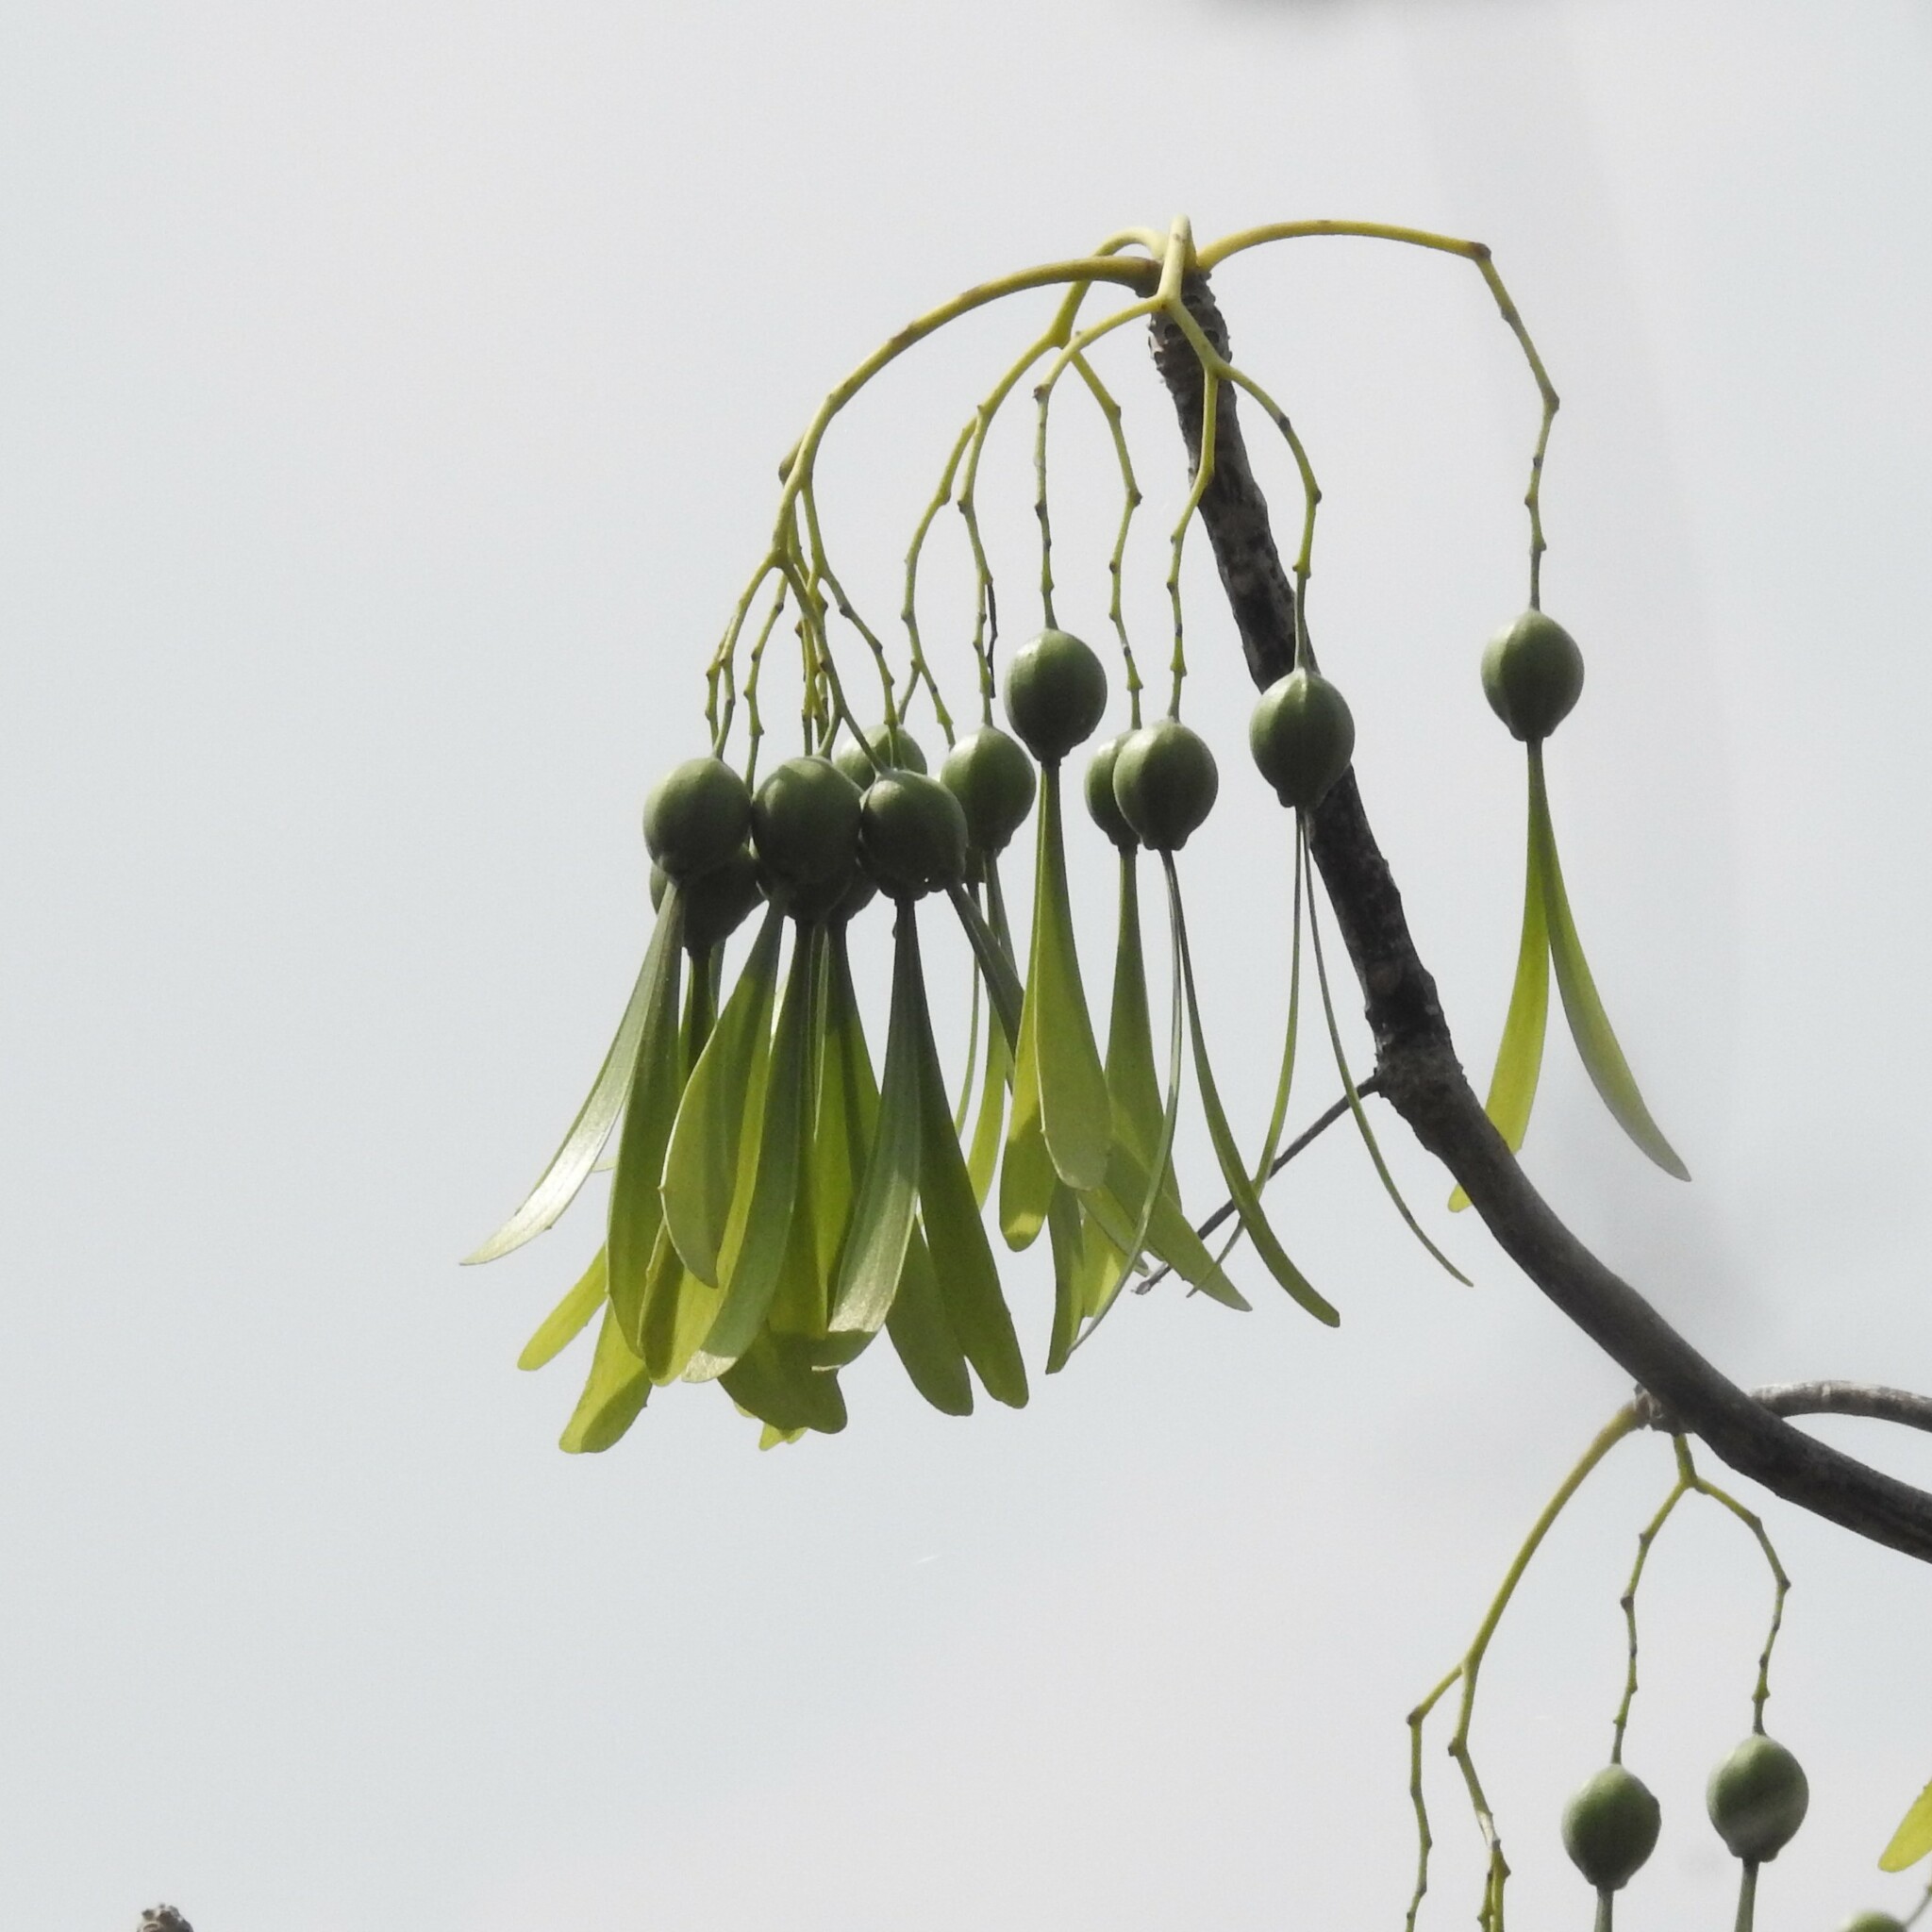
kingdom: Plantae
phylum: Tracheophyta
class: Magnoliopsida
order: Laurales
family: Hernandiaceae
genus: Gyrocarpus
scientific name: Gyrocarpus americanus
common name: Gyro damson
